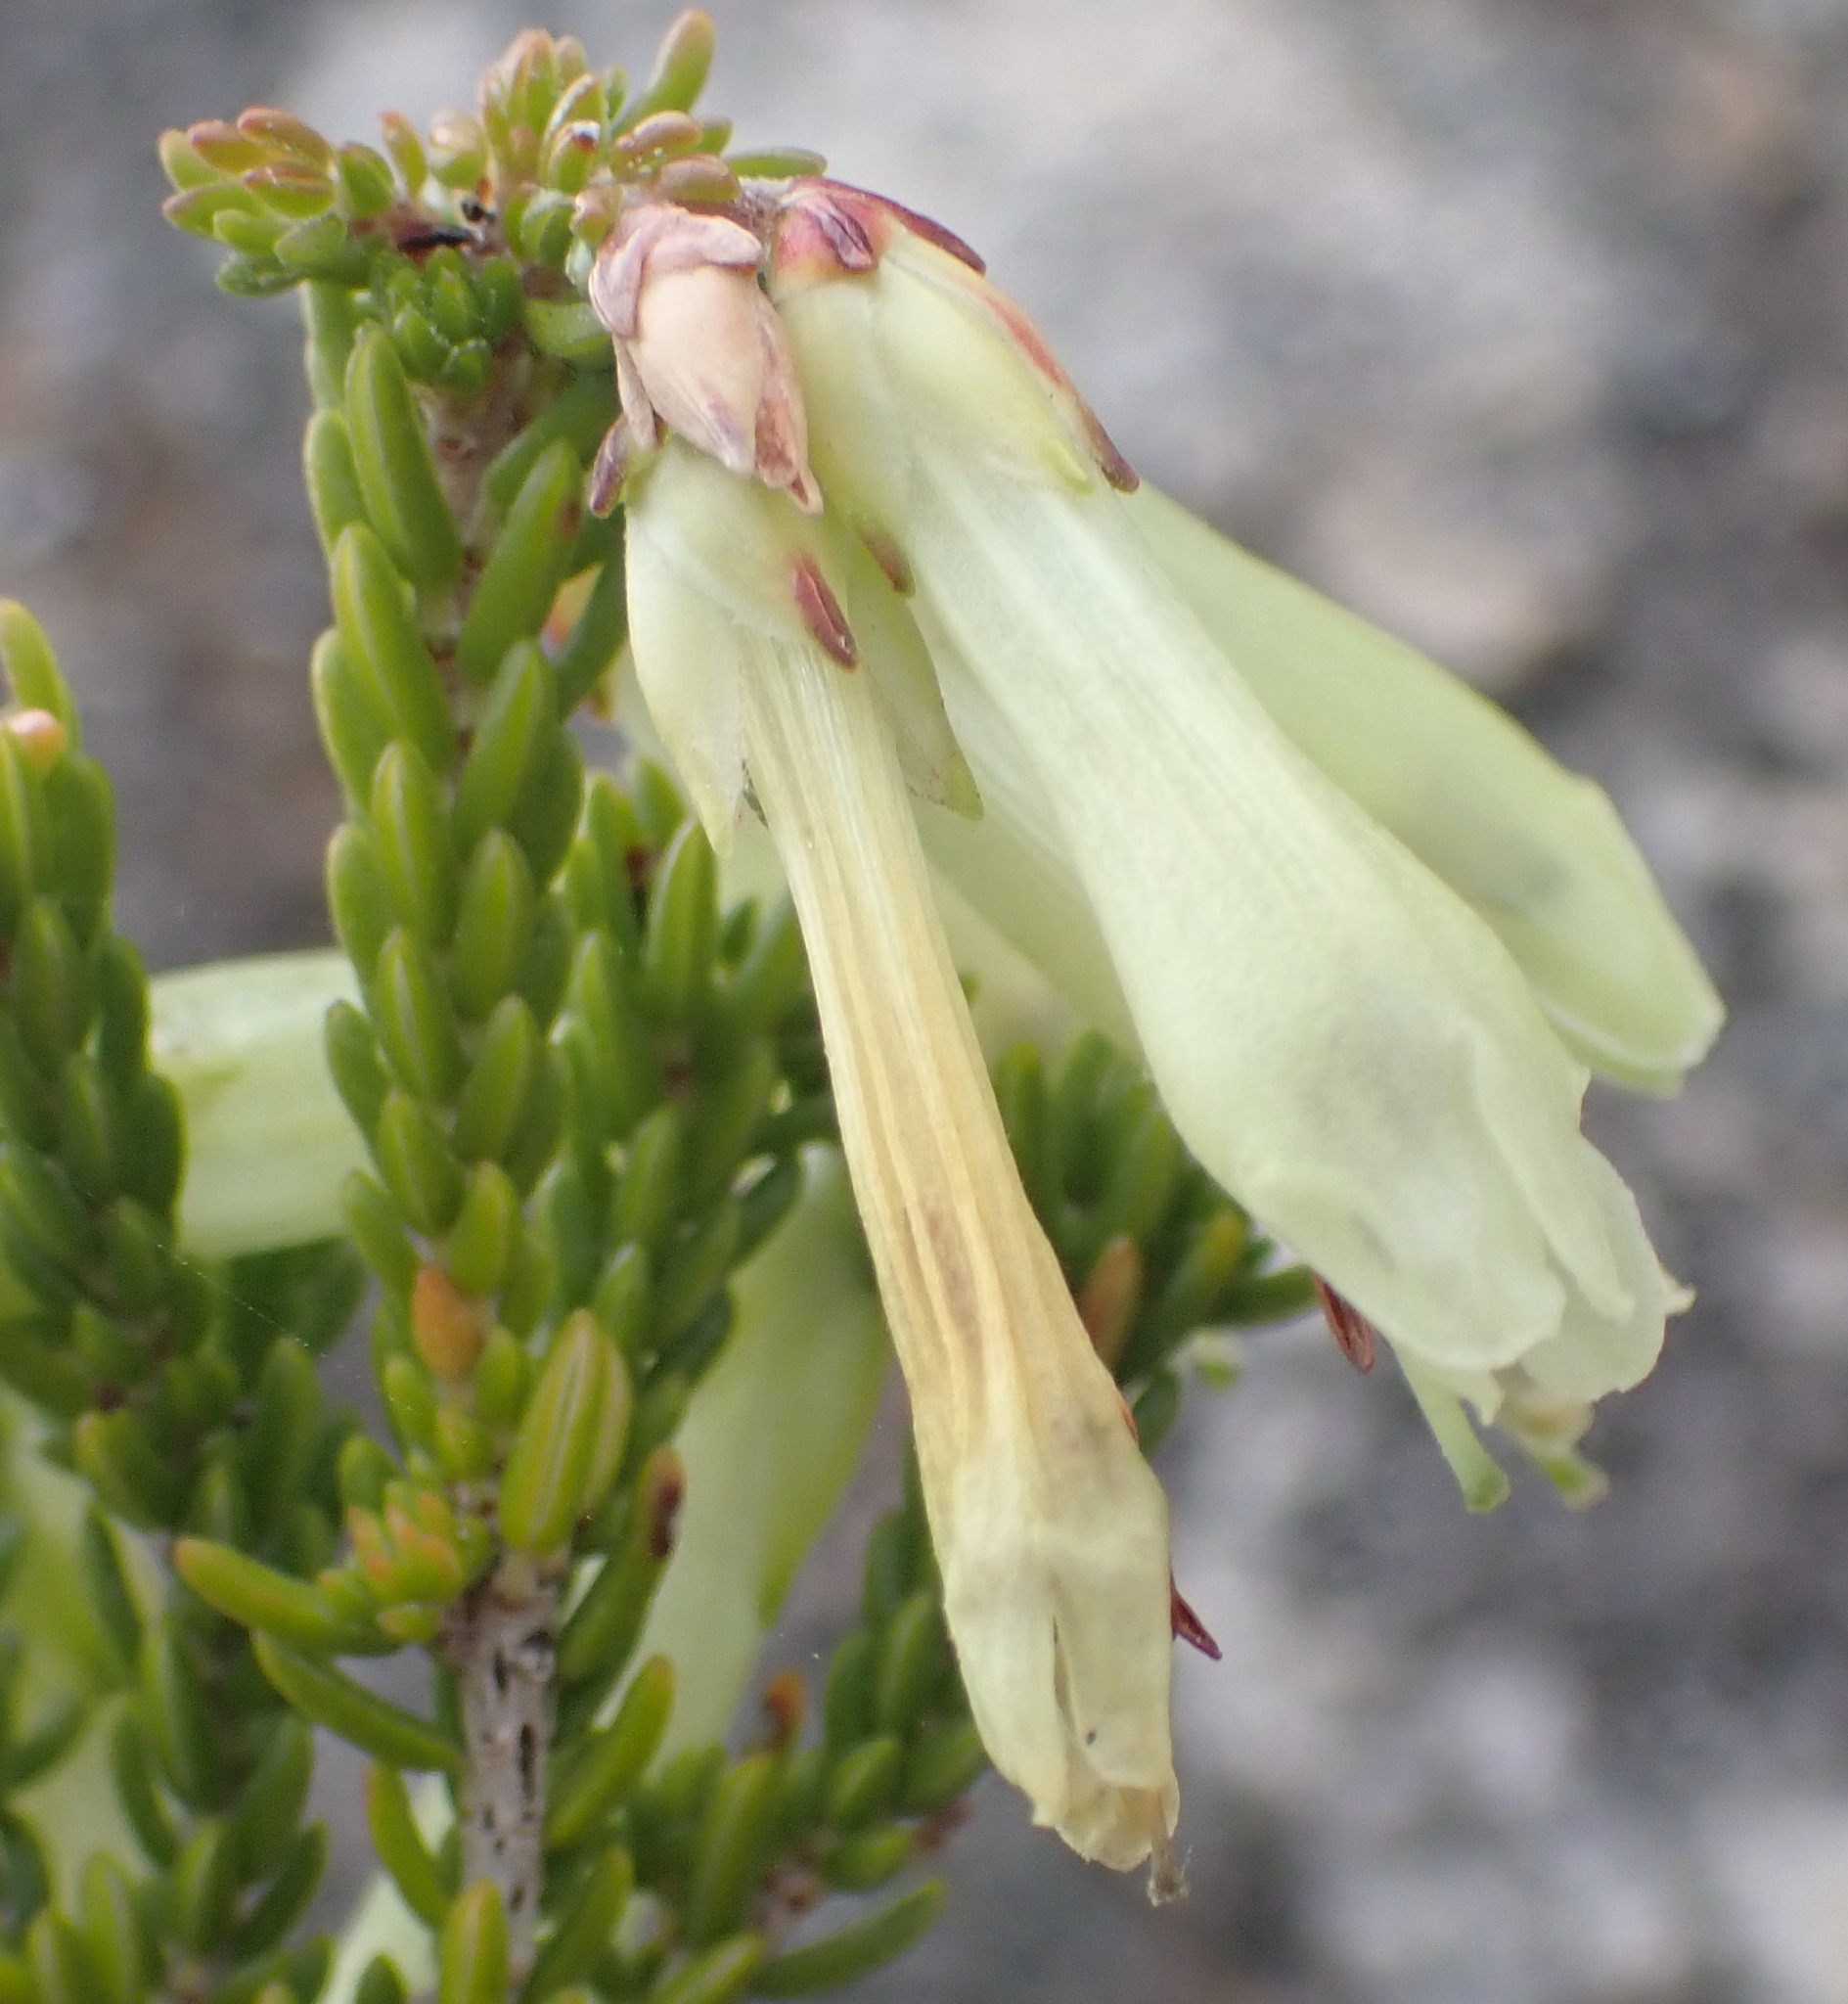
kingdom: Plantae
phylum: Tracheophyta
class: Magnoliopsida
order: Ericales
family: Ericaceae
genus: Erica
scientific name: Erica viridiflora
